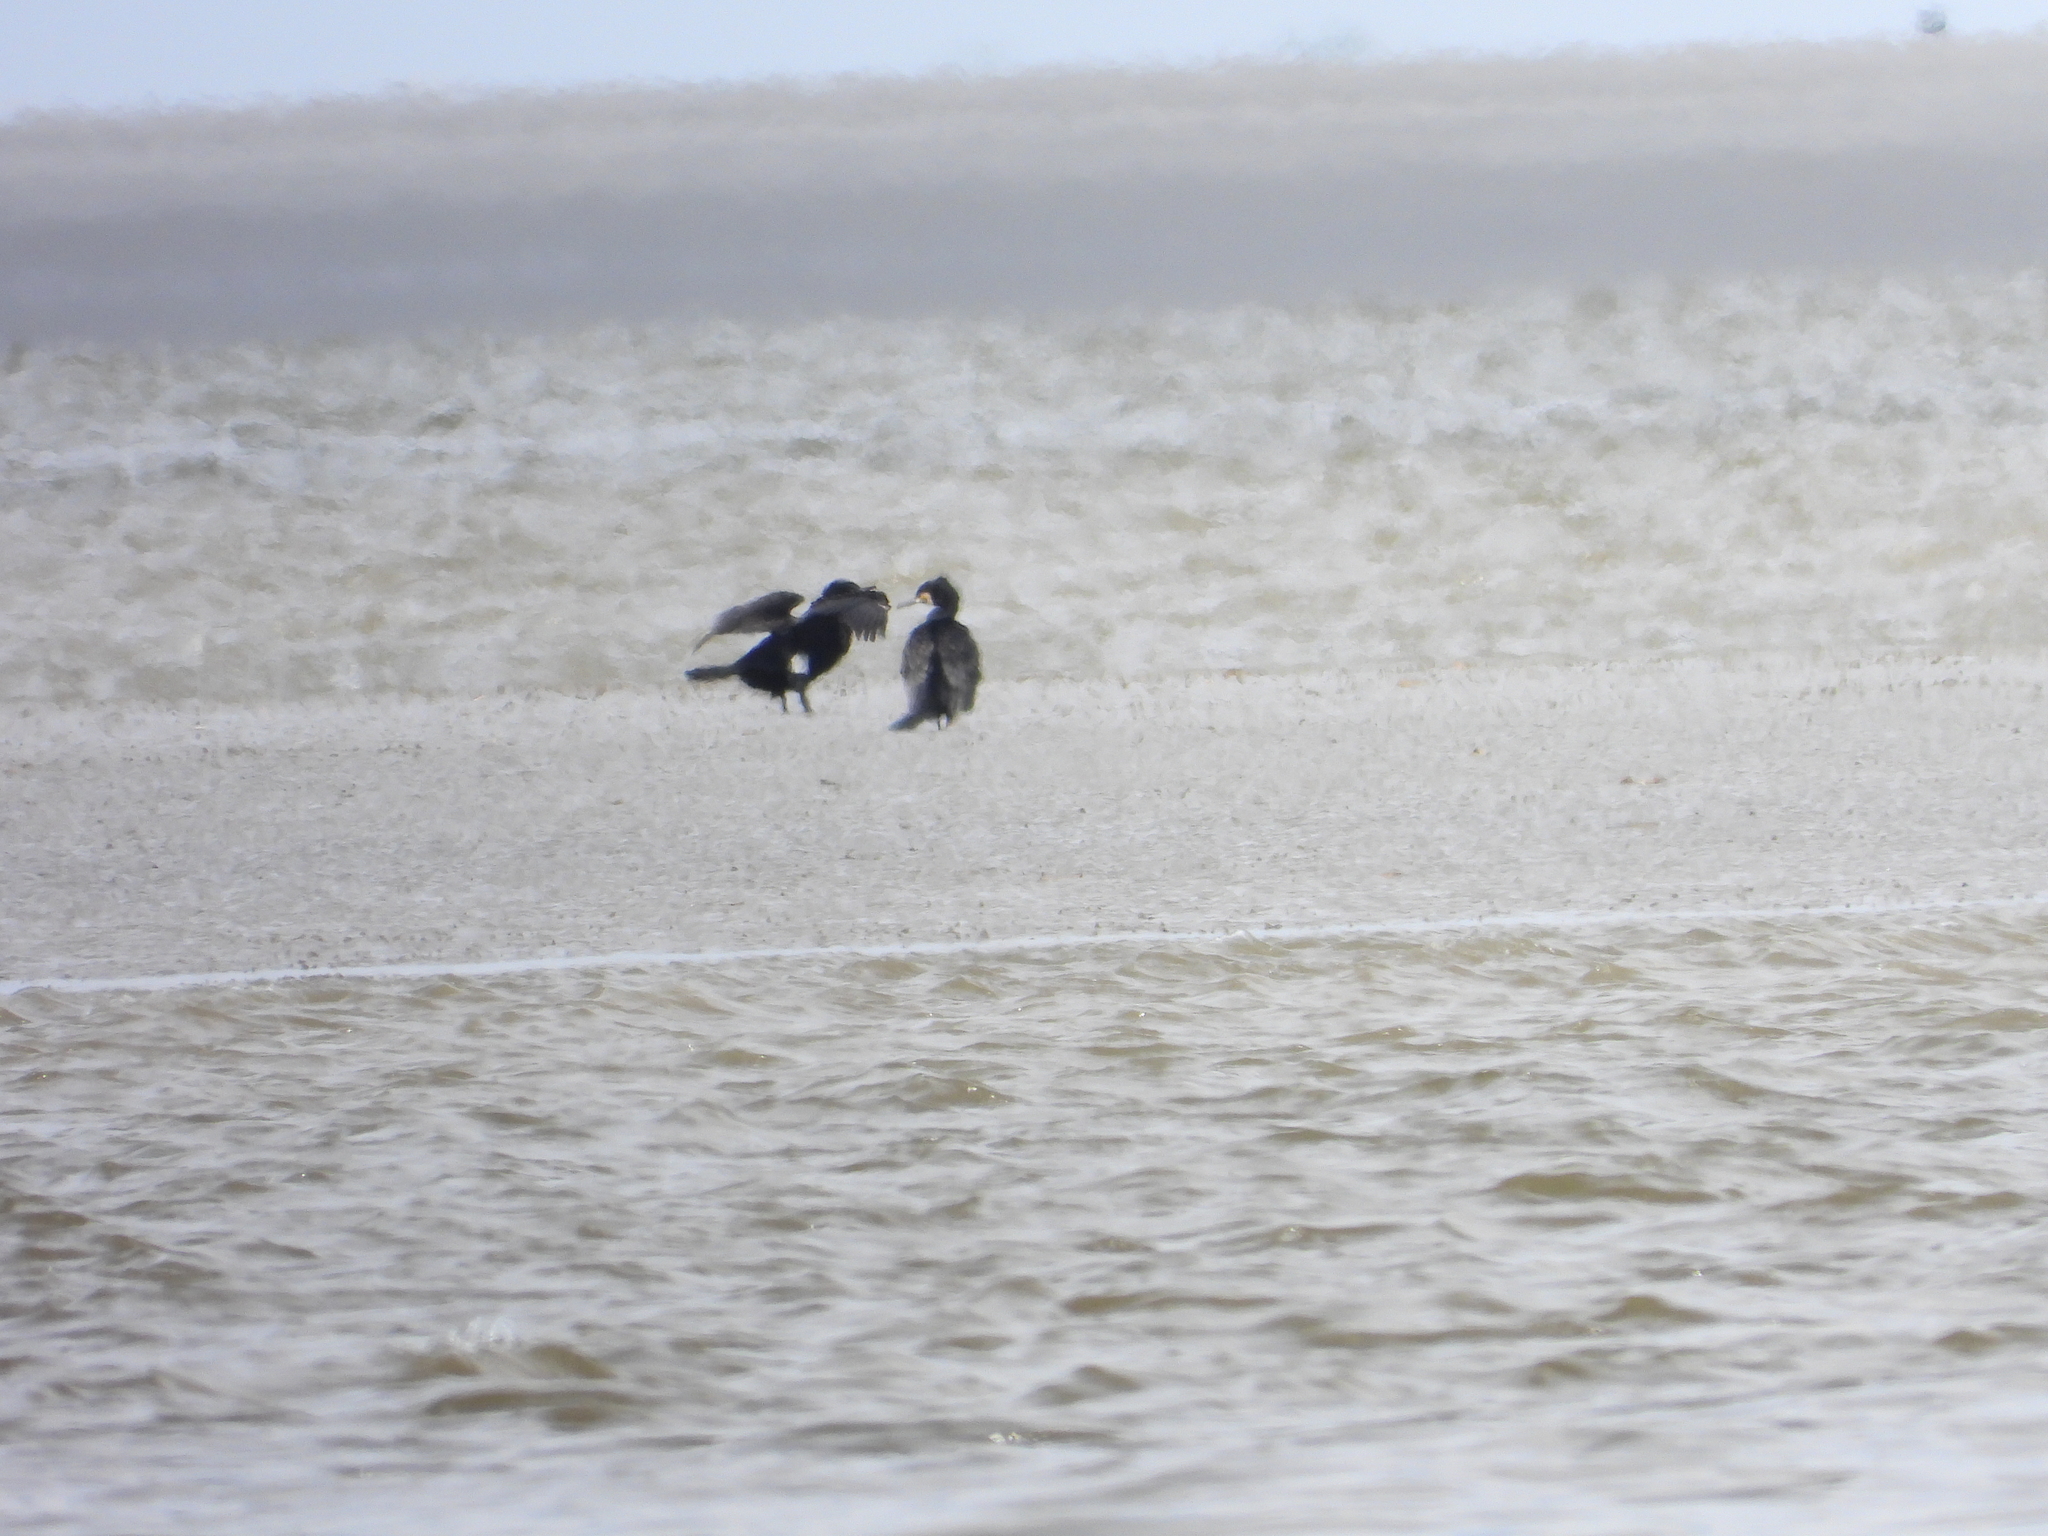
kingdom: Animalia
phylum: Chordata
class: Aves
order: Suliformes
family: Phalacrocoracidae
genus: Phalacrocorax
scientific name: Phalacrocorax carbo
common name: Great cormorant
